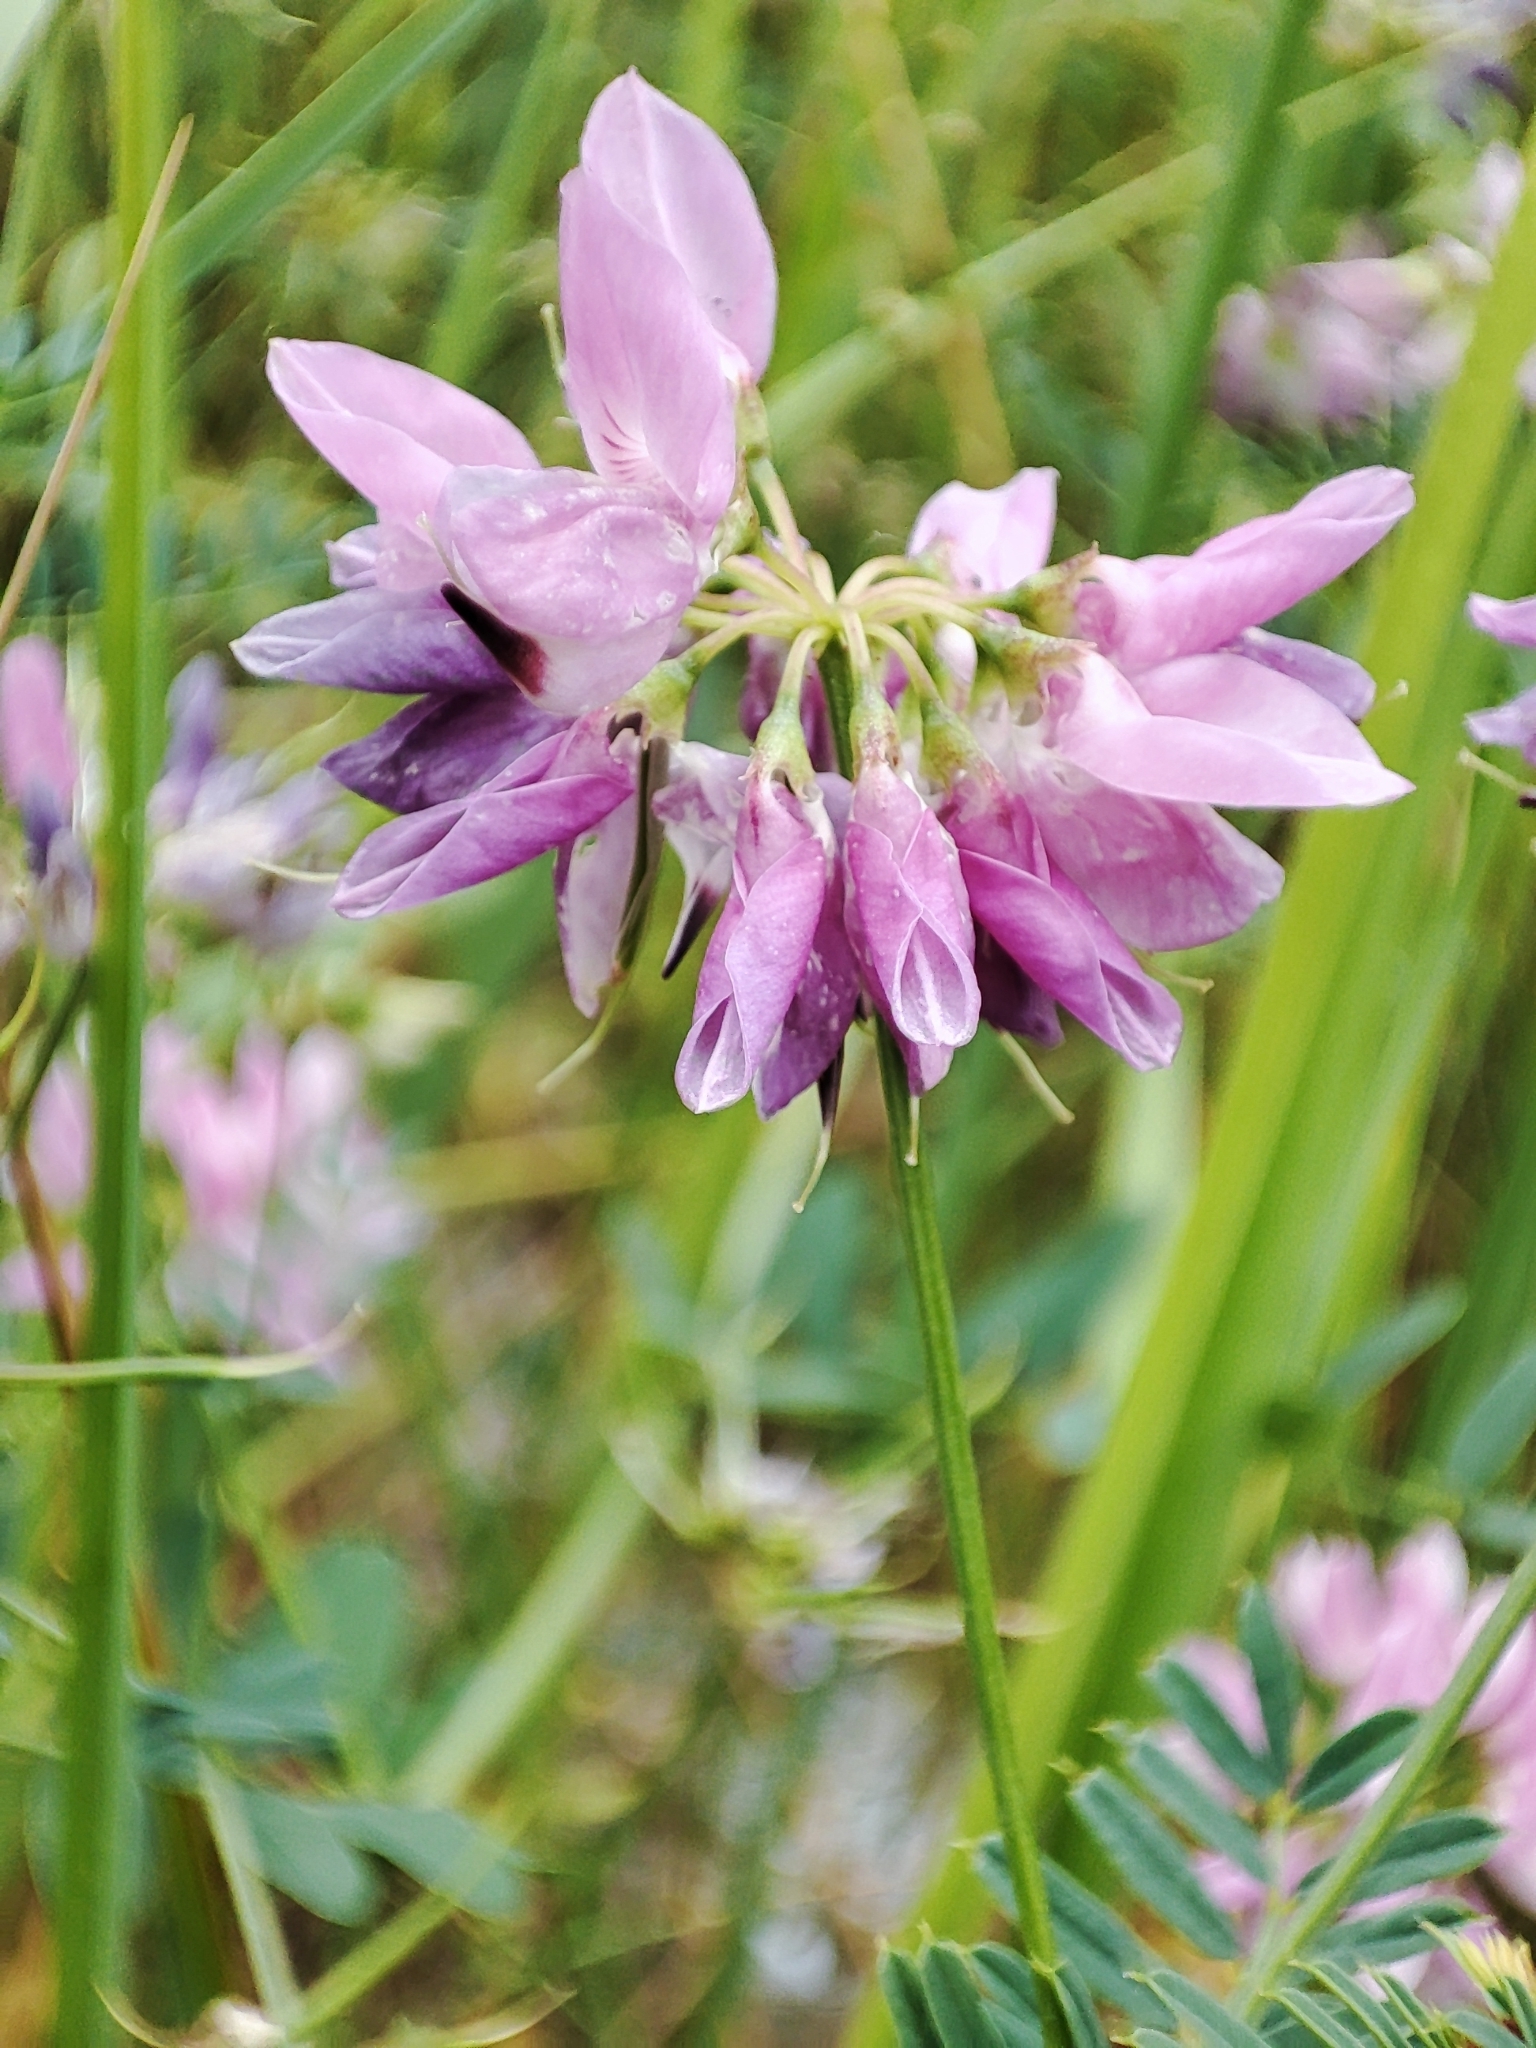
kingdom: Plantae
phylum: Tracheophyta
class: Magnoliopsida
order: Fabales
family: Fabaceae
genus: Coronilla
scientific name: Coronilla varia
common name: Crownvetch
